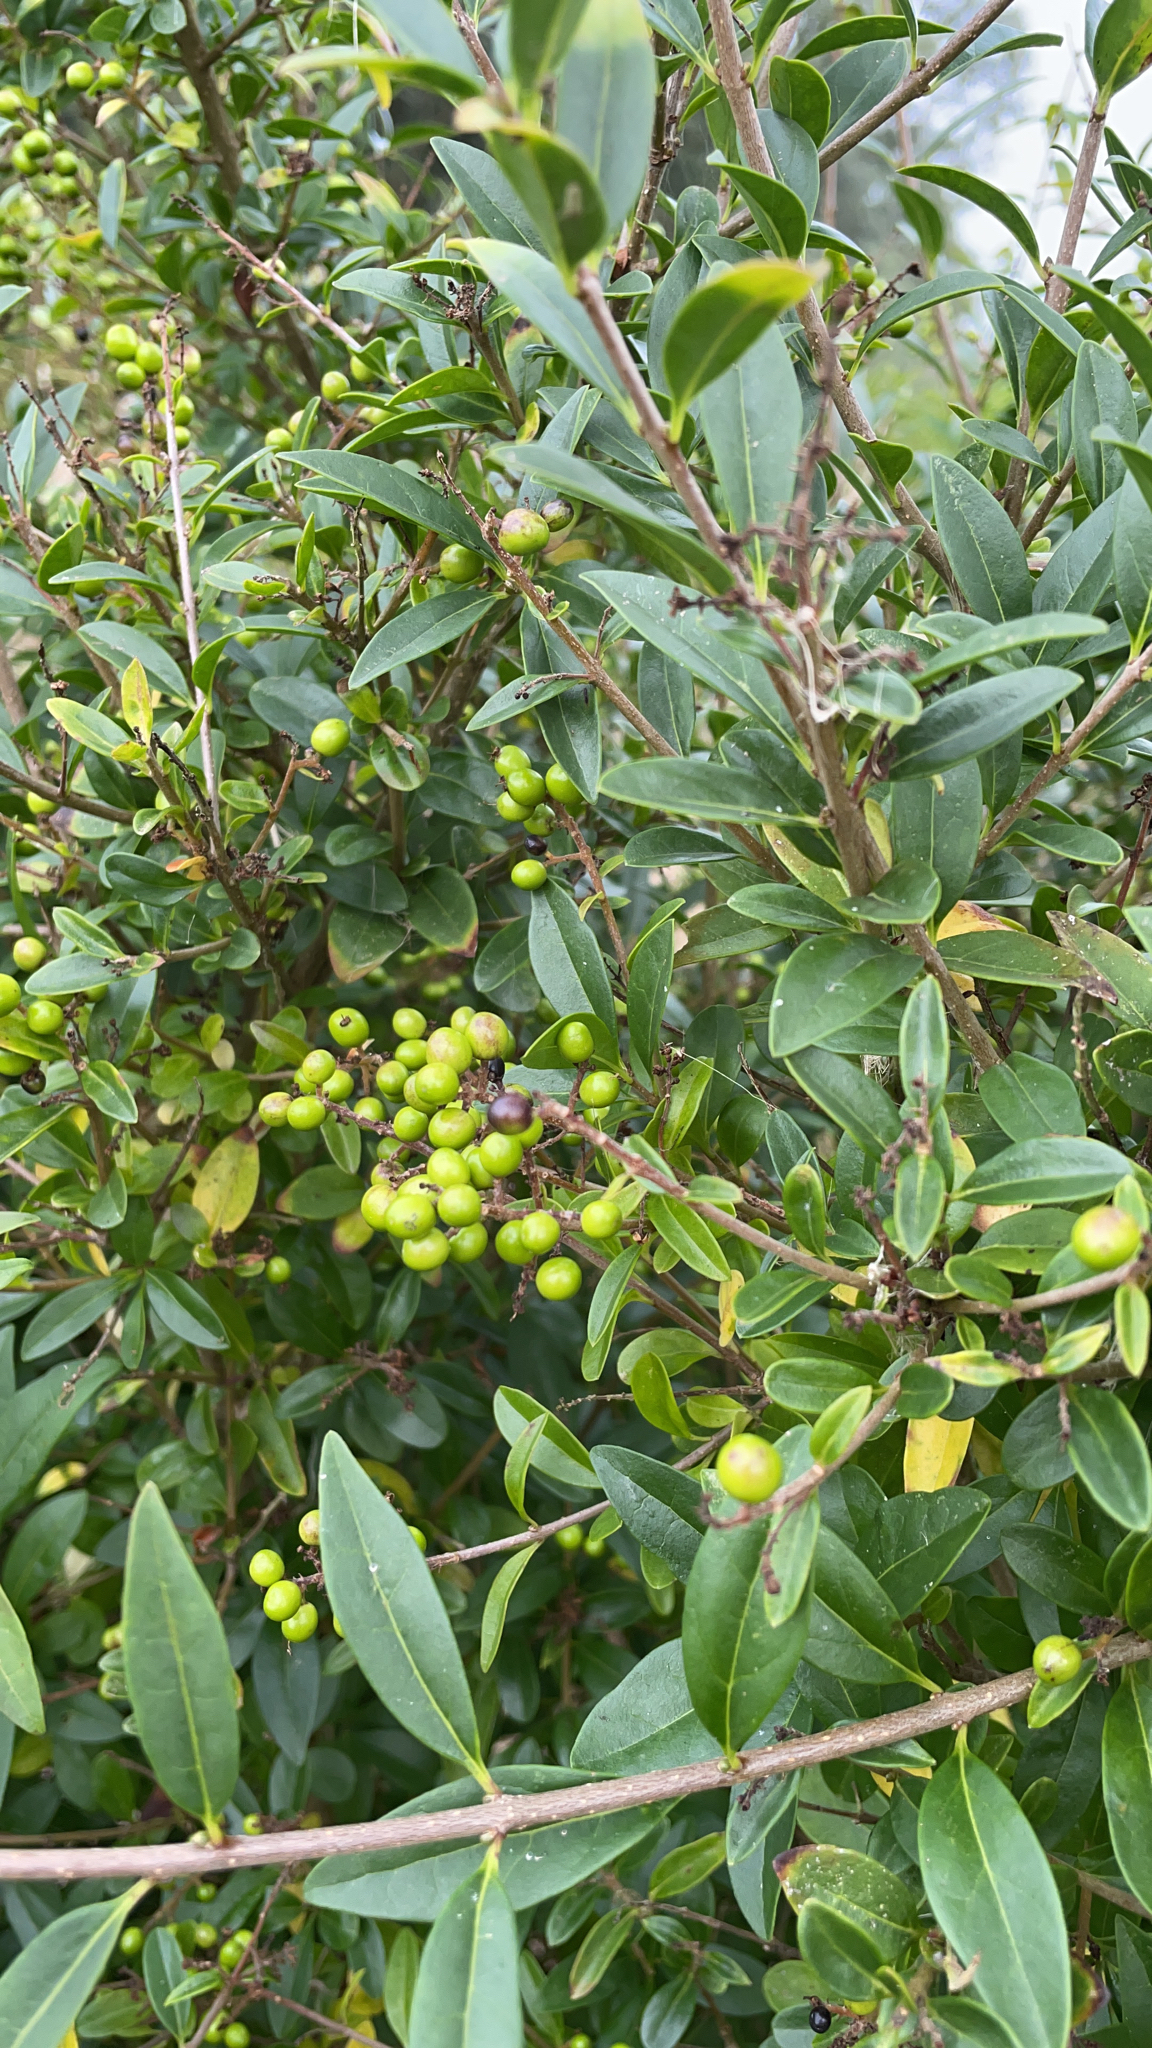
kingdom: Plantae
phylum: Tracheophyta
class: Magnoliopsida
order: Lamiales
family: Oleaceae
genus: Ligustrum
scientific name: Ligustrum vulgare
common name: Wild privet
